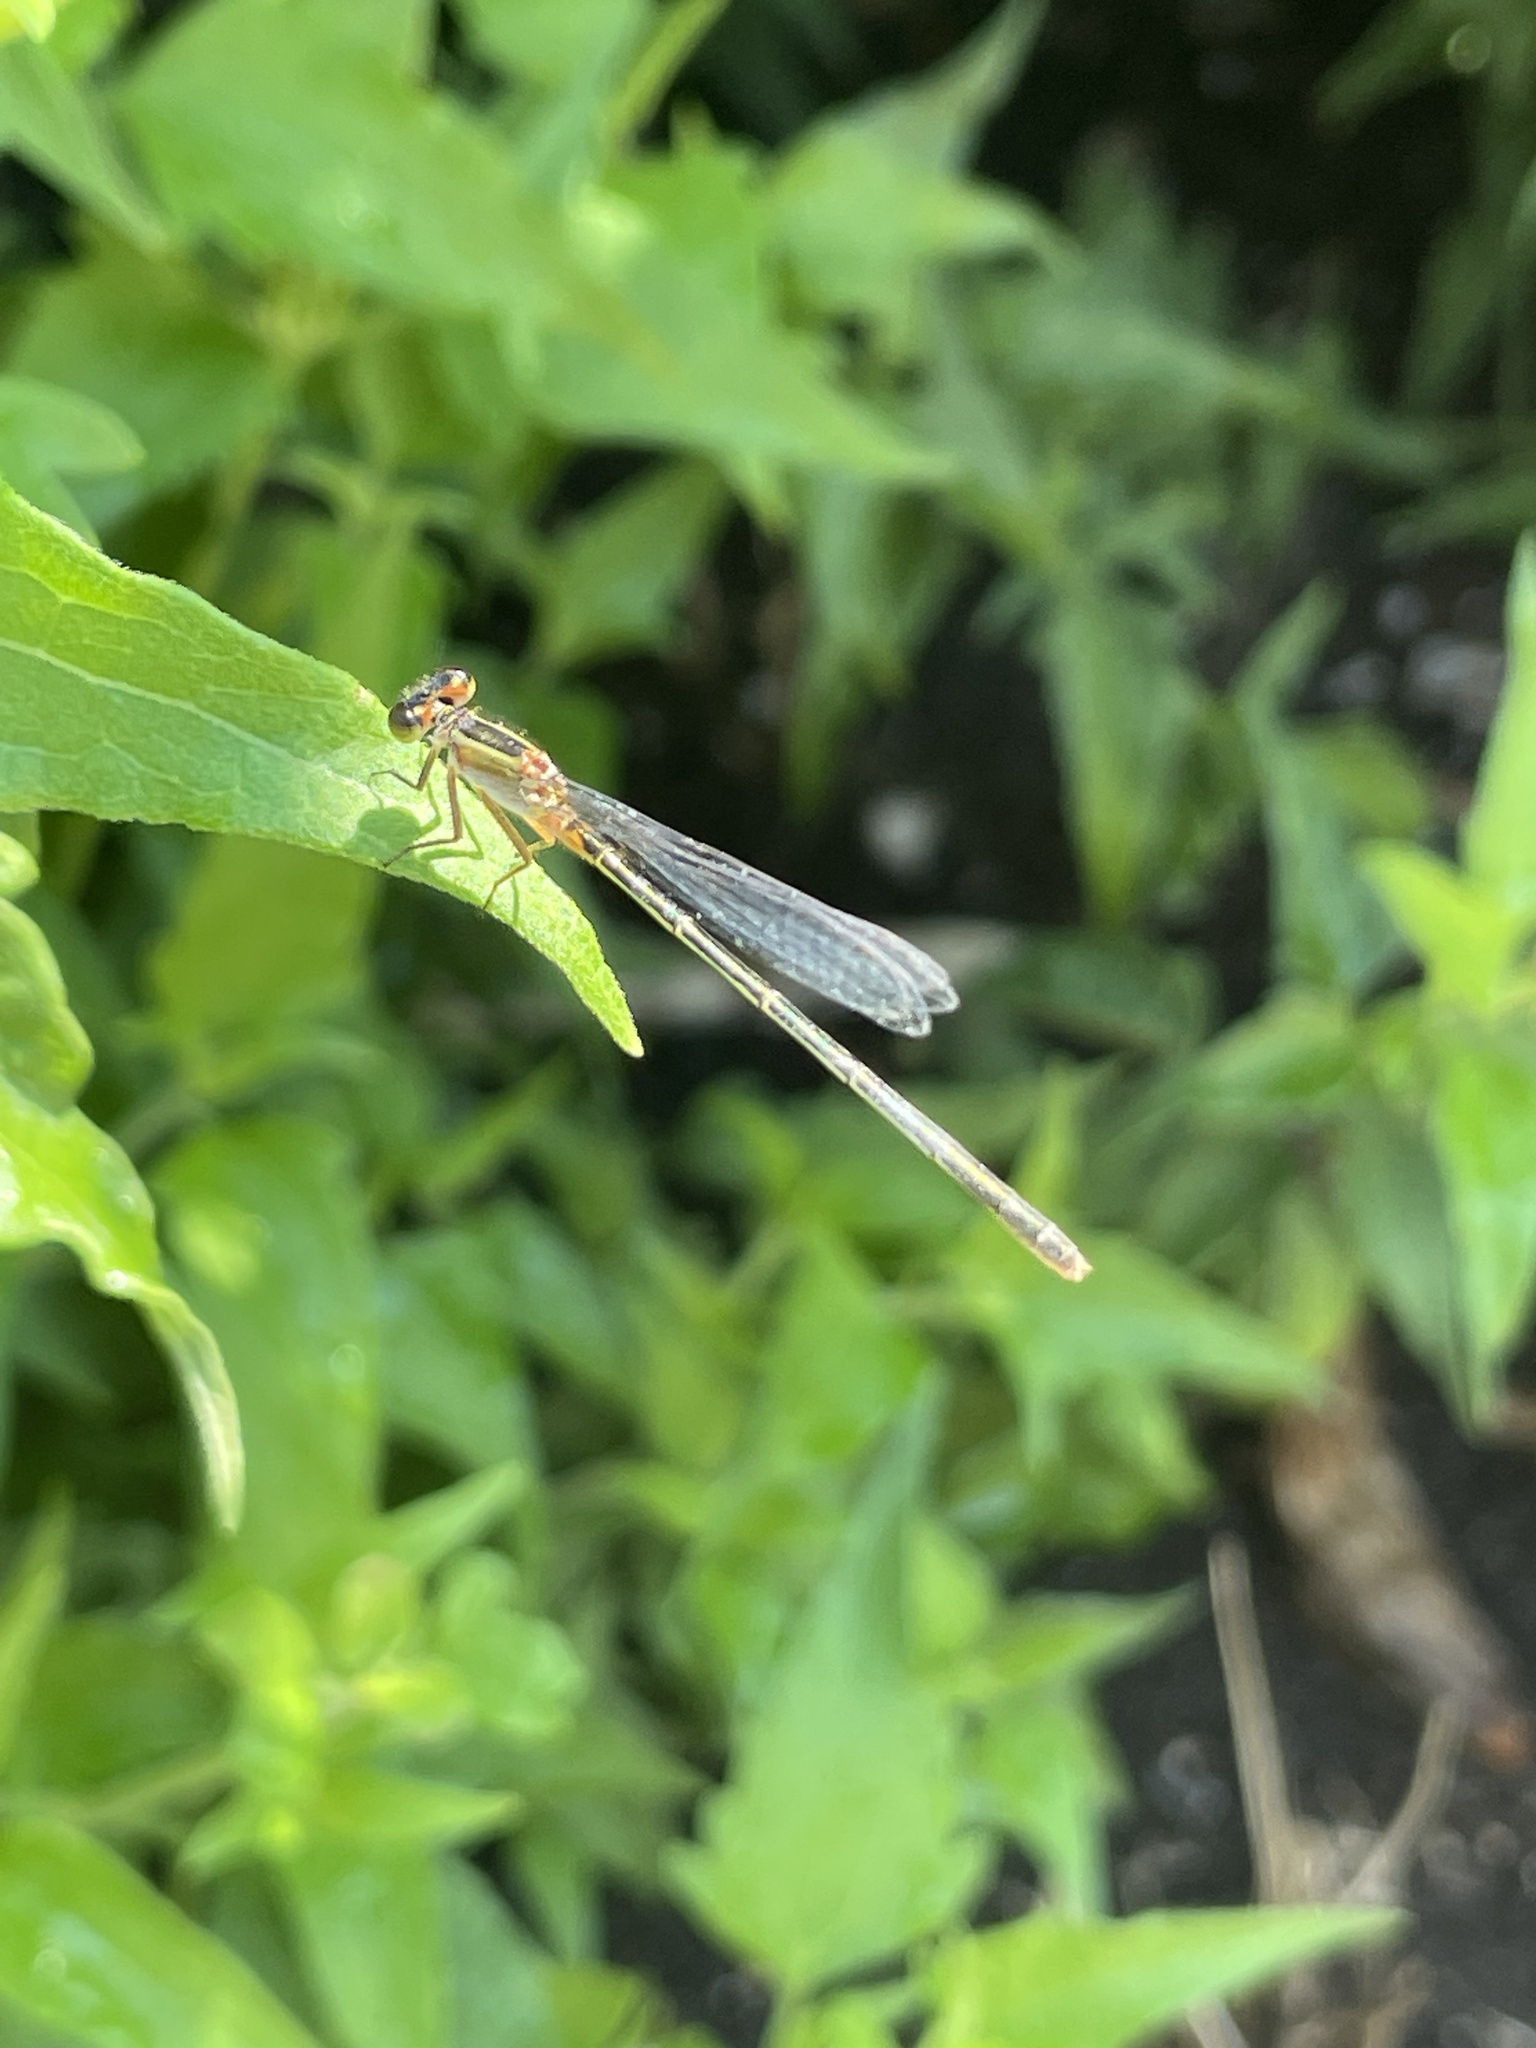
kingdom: Animalia
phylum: Arthropoda
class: Insecta
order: Odonata
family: Coenagrionidae
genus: Ischnura
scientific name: Ischnura ramburii
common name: Rambur's forktail
